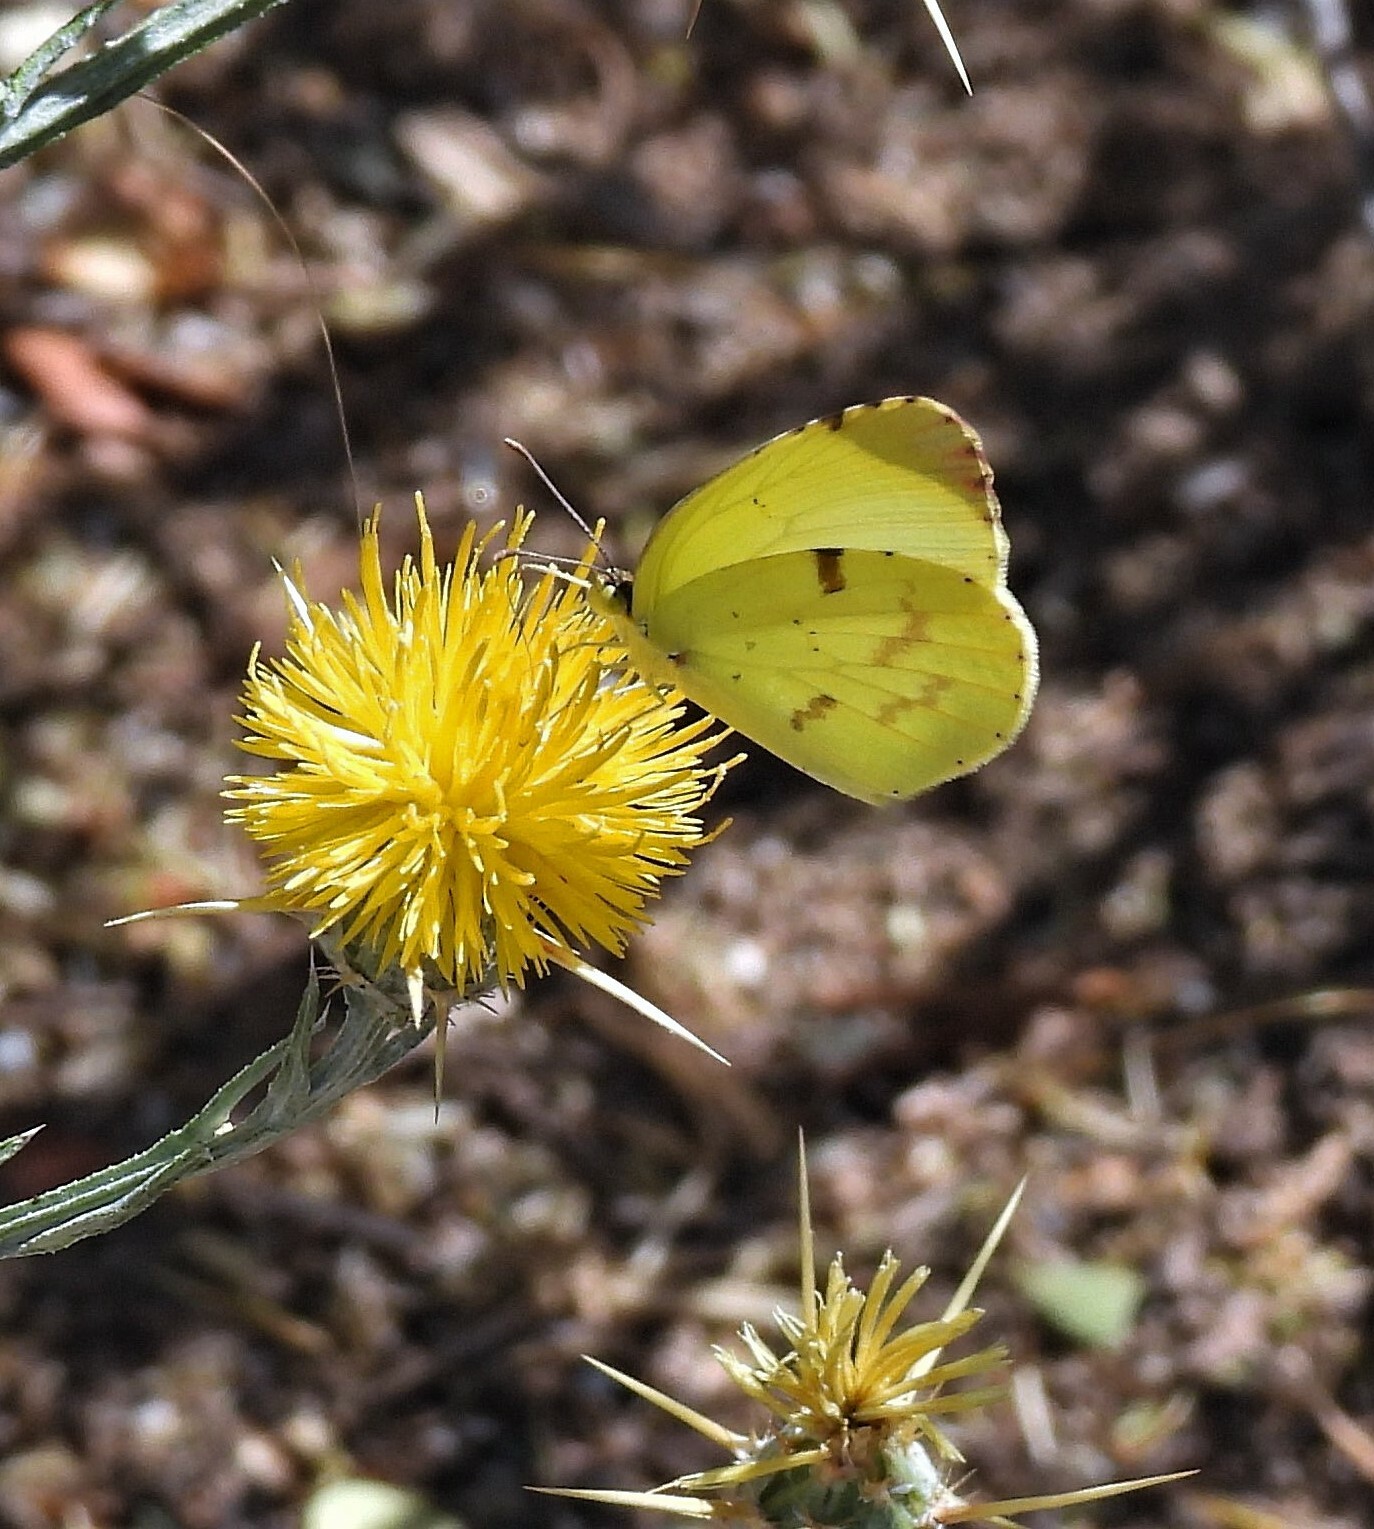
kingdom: Animalia
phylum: Arthropoda
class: Insecta
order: Lepidoptera
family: Pieridae
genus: Teriocolias
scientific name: Teriocolias
